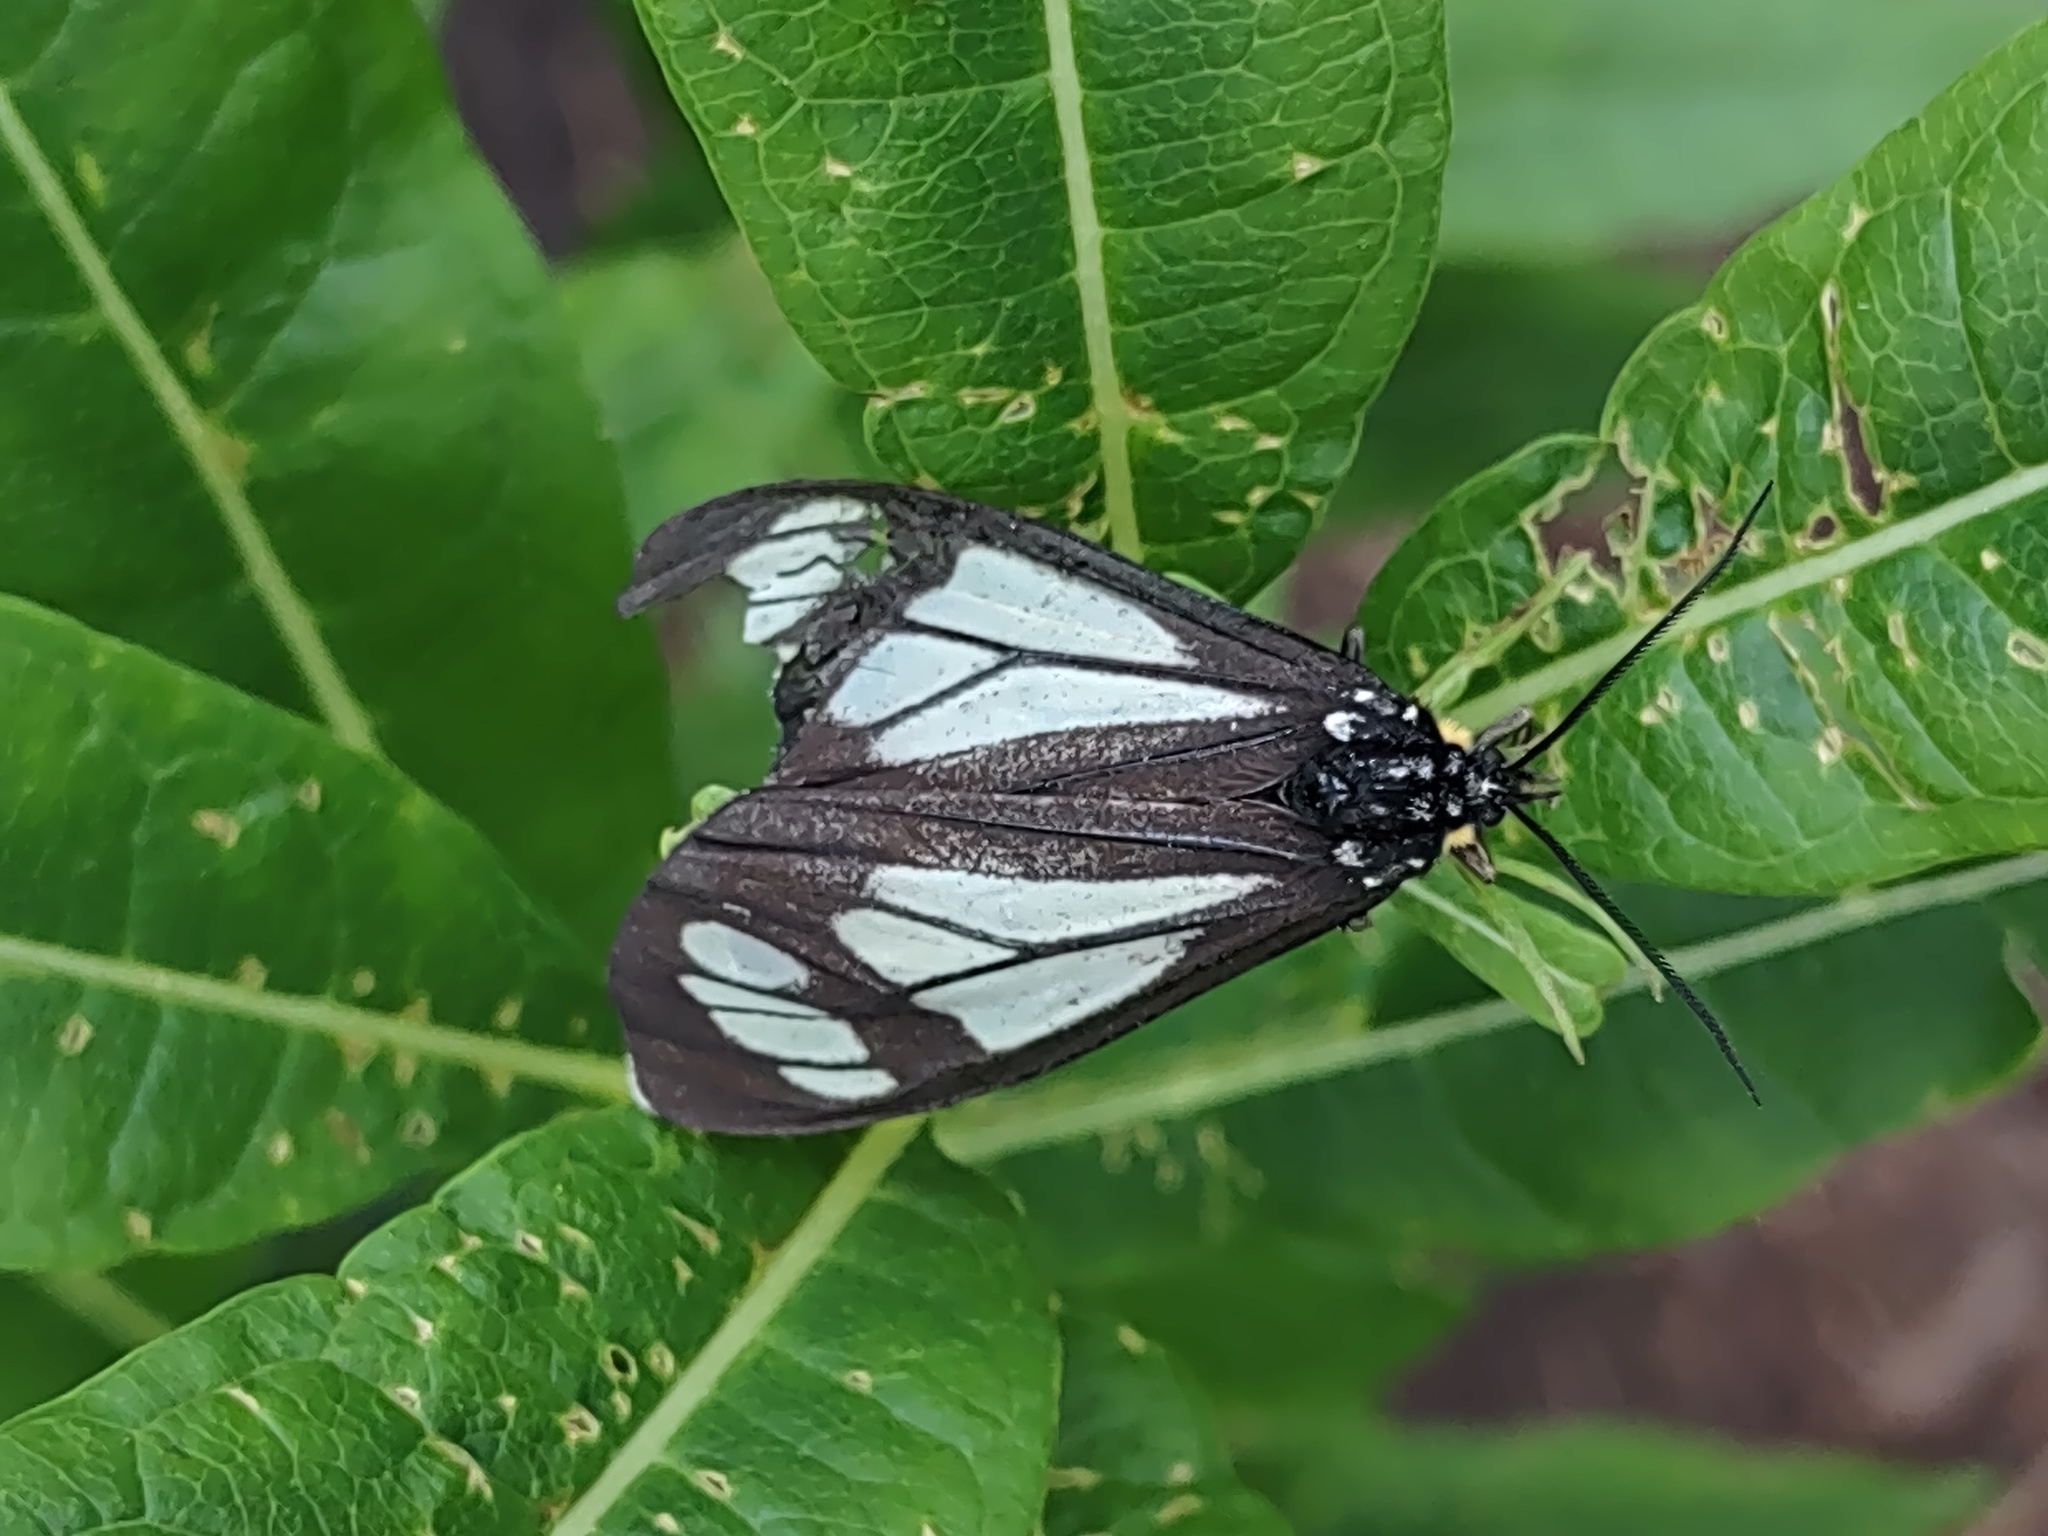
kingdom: Animalia
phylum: Arthropoda
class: Insecta
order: Lepidoptera
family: Erebidae
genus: Gnophaela
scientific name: Gnophaela vermiculata
